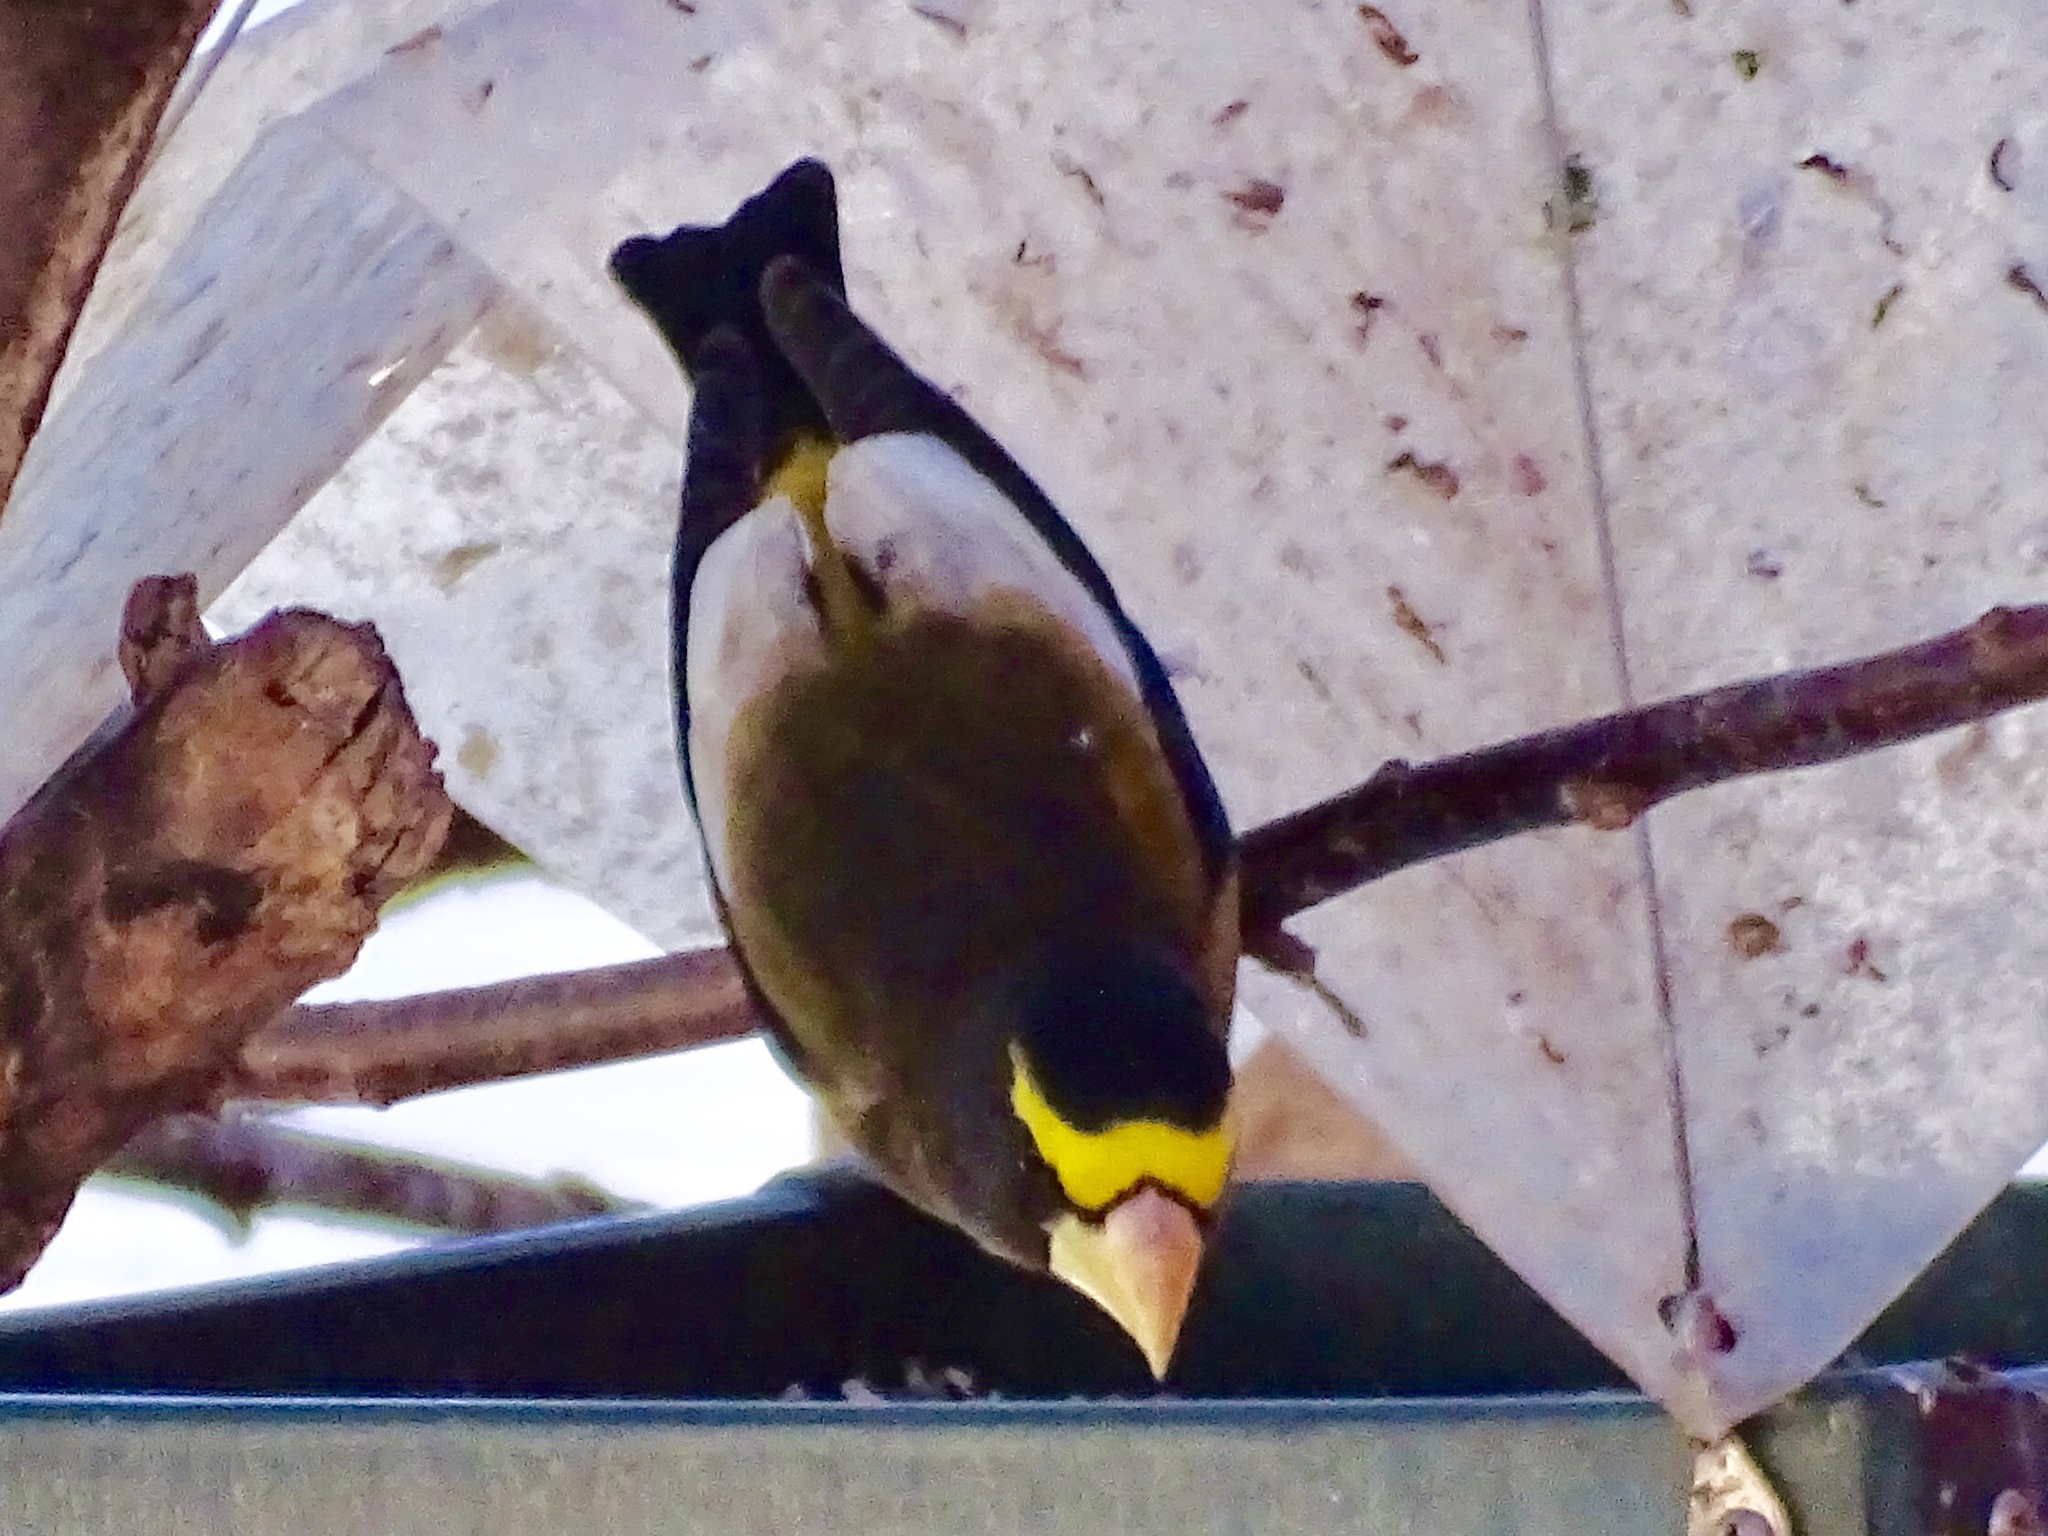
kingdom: Animalia
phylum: Chordata
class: Aves
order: Passeriformes
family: Fringillidae
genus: Hesperiphona
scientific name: Hesperiphona vespertina
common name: Evening grosbeak
